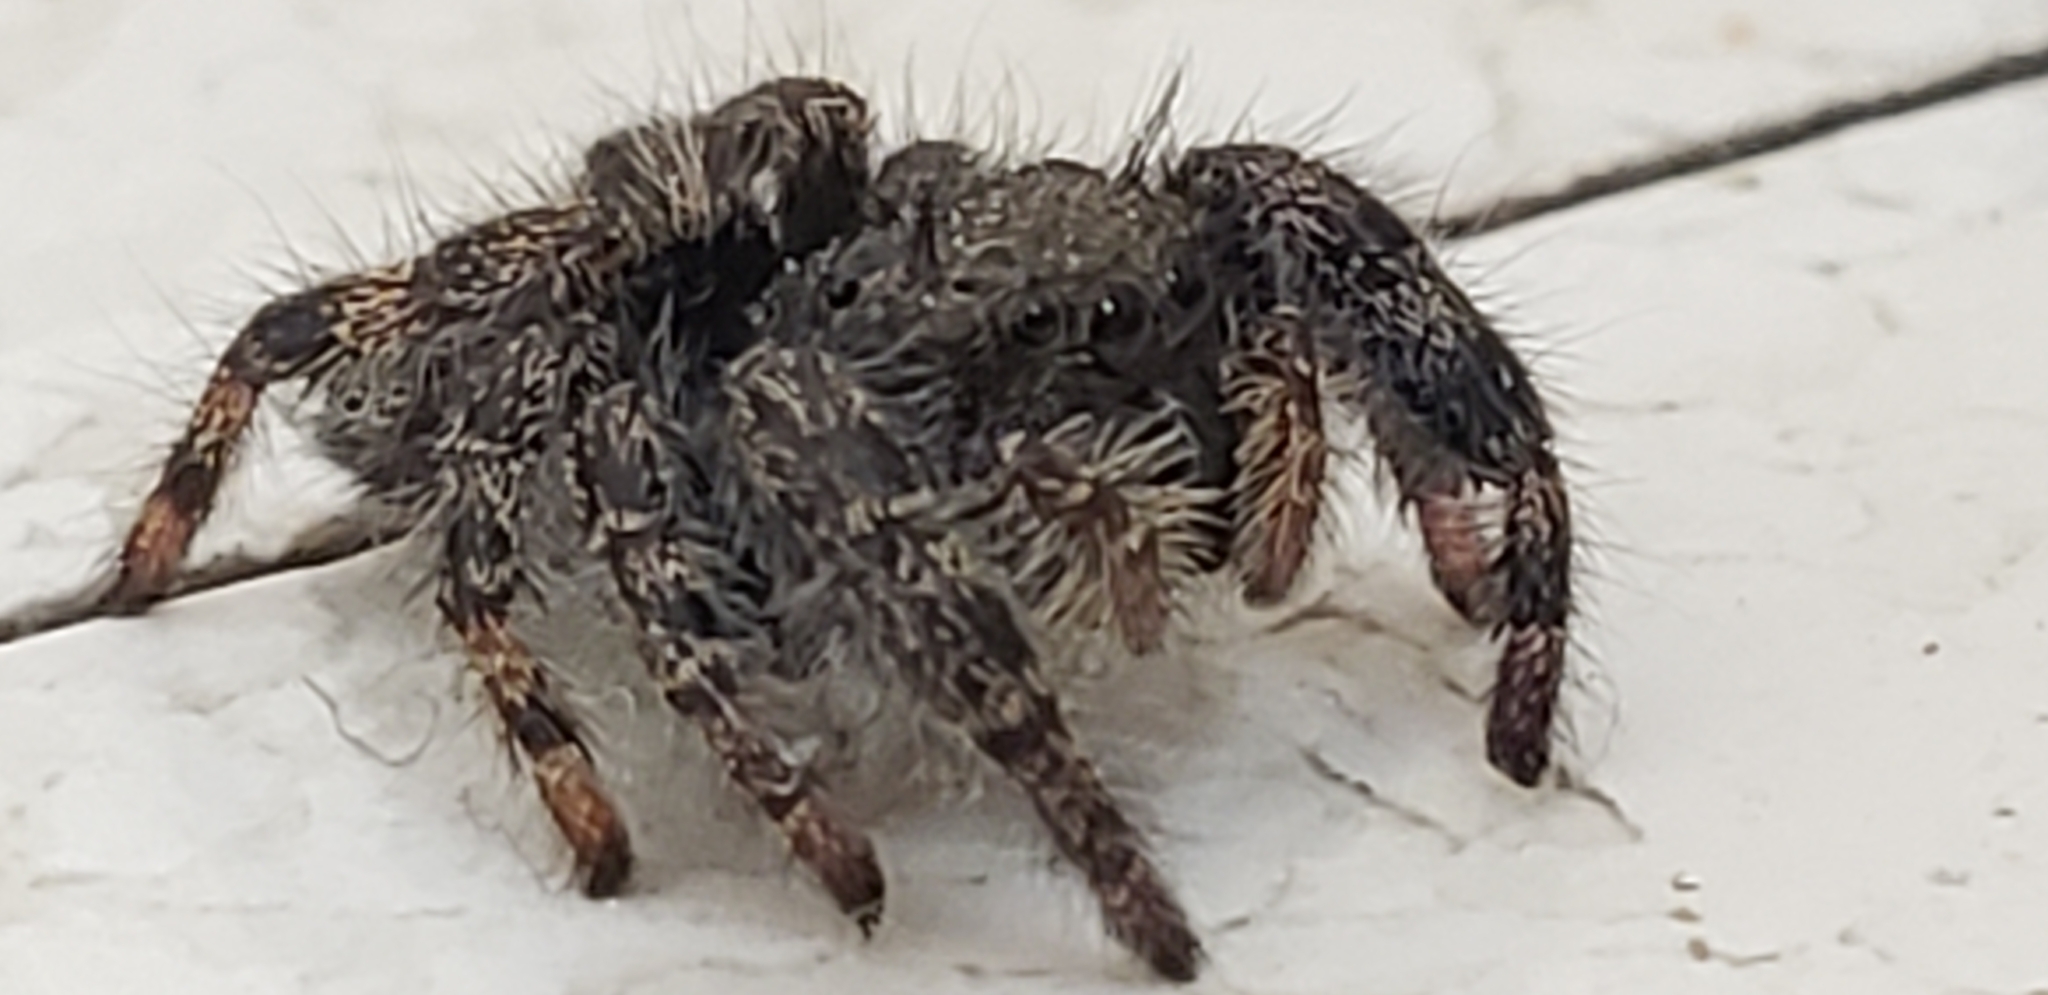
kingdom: Animalia
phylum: Arthropoda
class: Arachnida
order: Araneae
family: Salticidae
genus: Phidippus
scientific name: Phidippus audax
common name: Bold jumper
